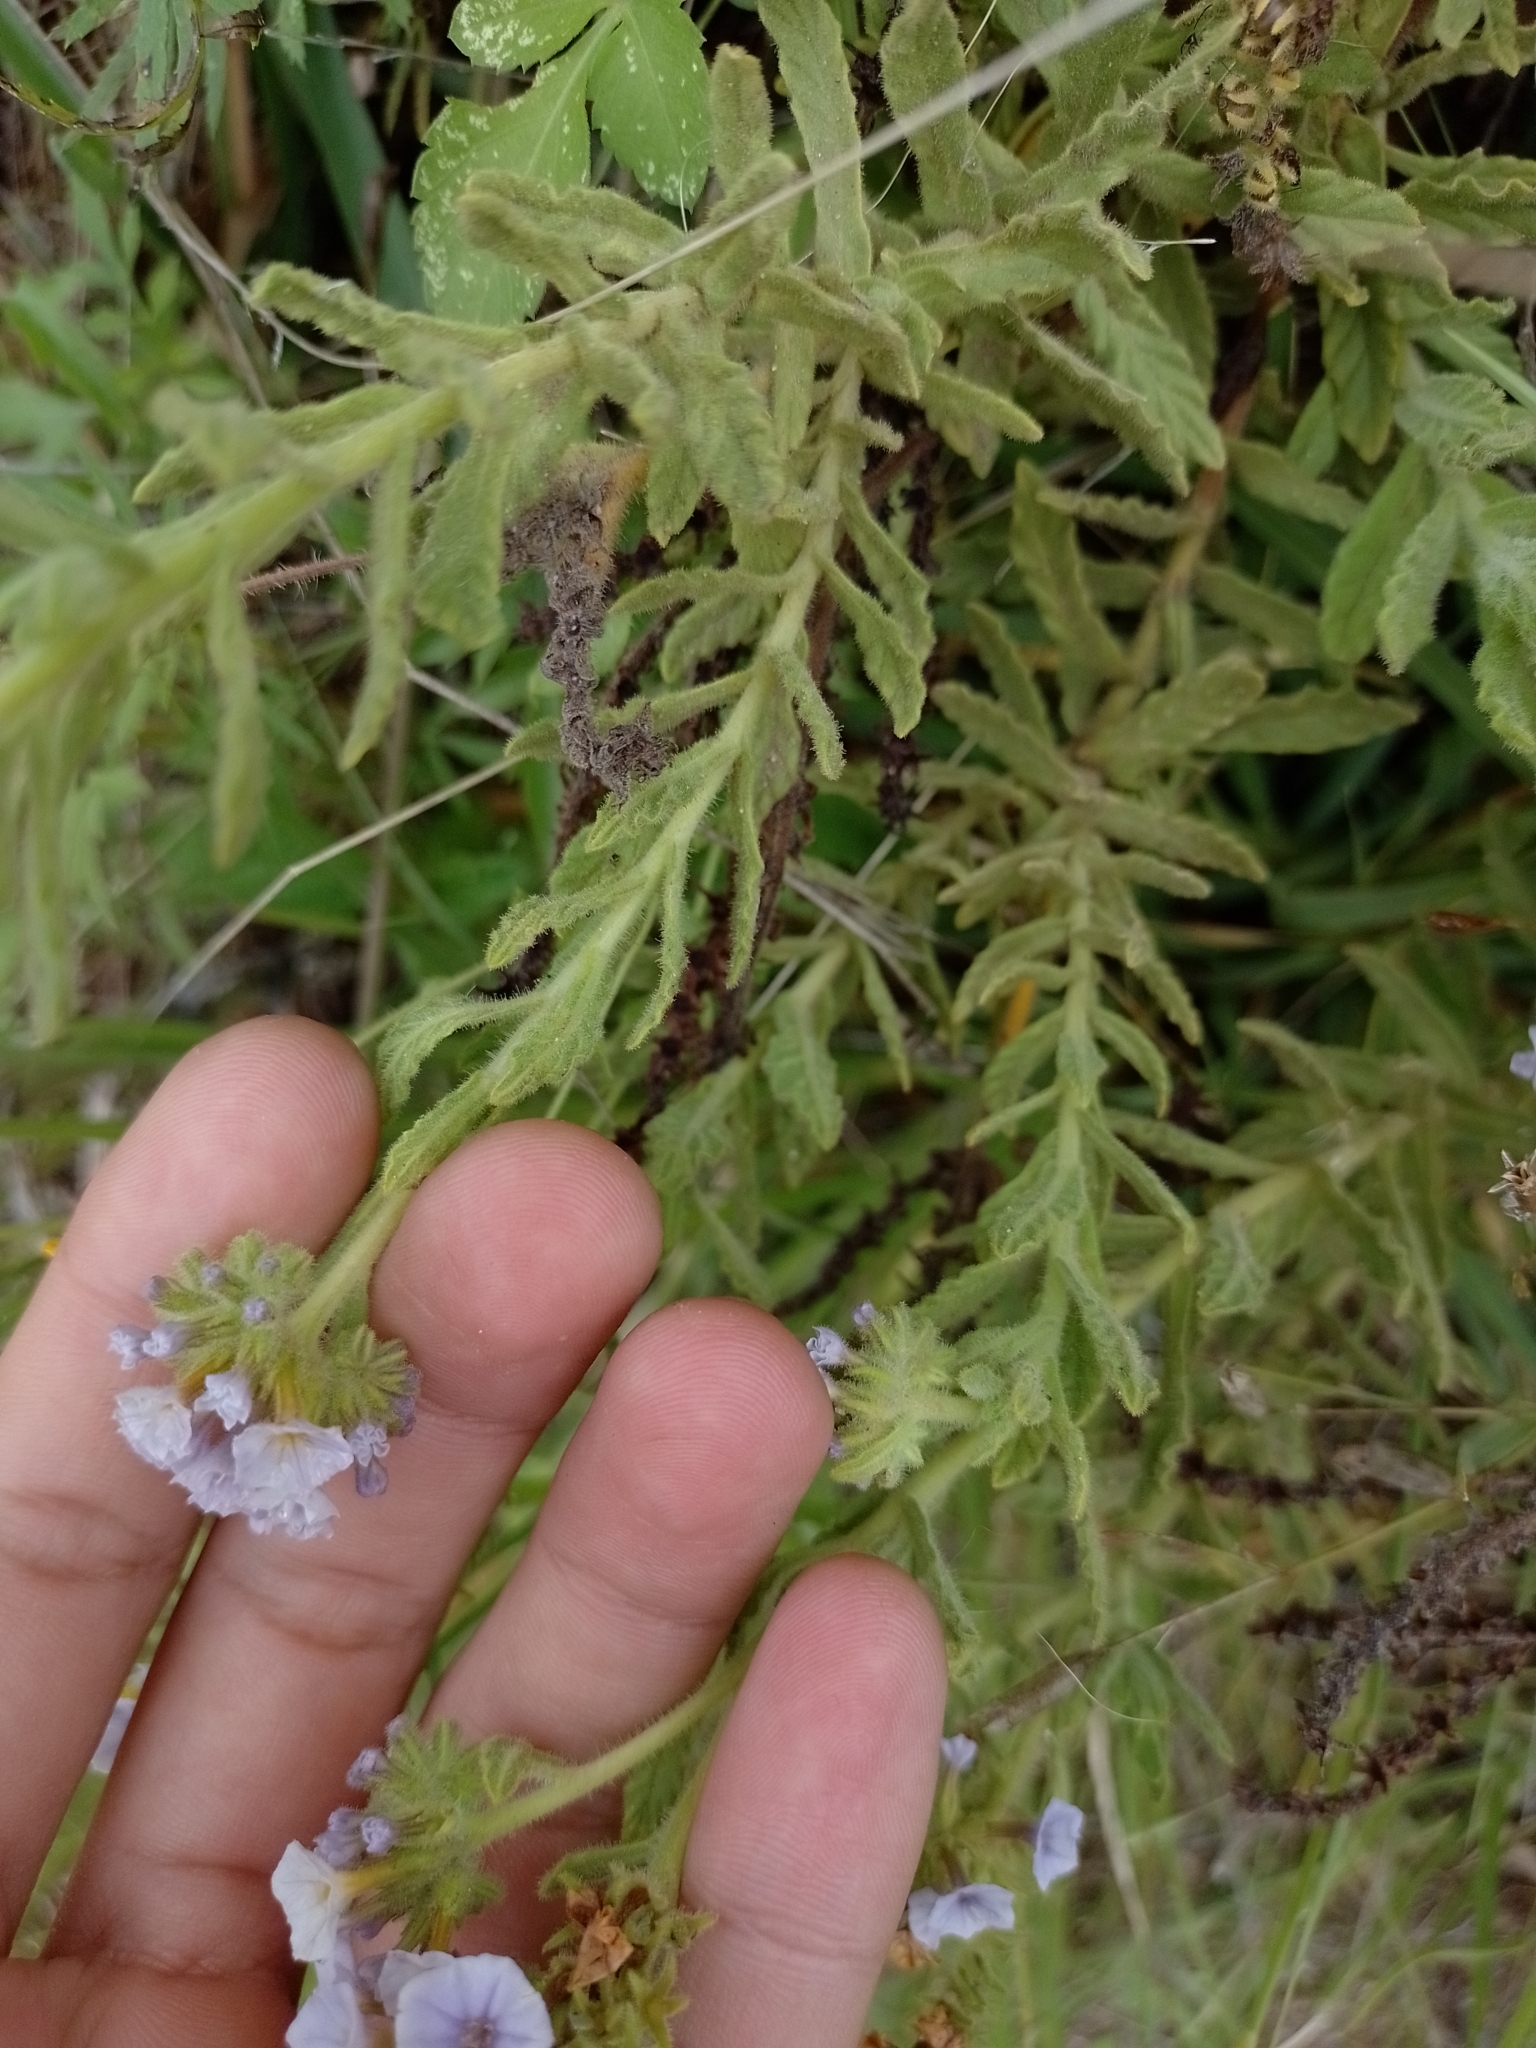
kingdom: Plantae
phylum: Tracheophyta
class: Magnoliopsida
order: Boraginales
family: Heliotropiaceae
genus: Heliotropium
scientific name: Heliotropium amplexicaule
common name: Clasping heliotrope
